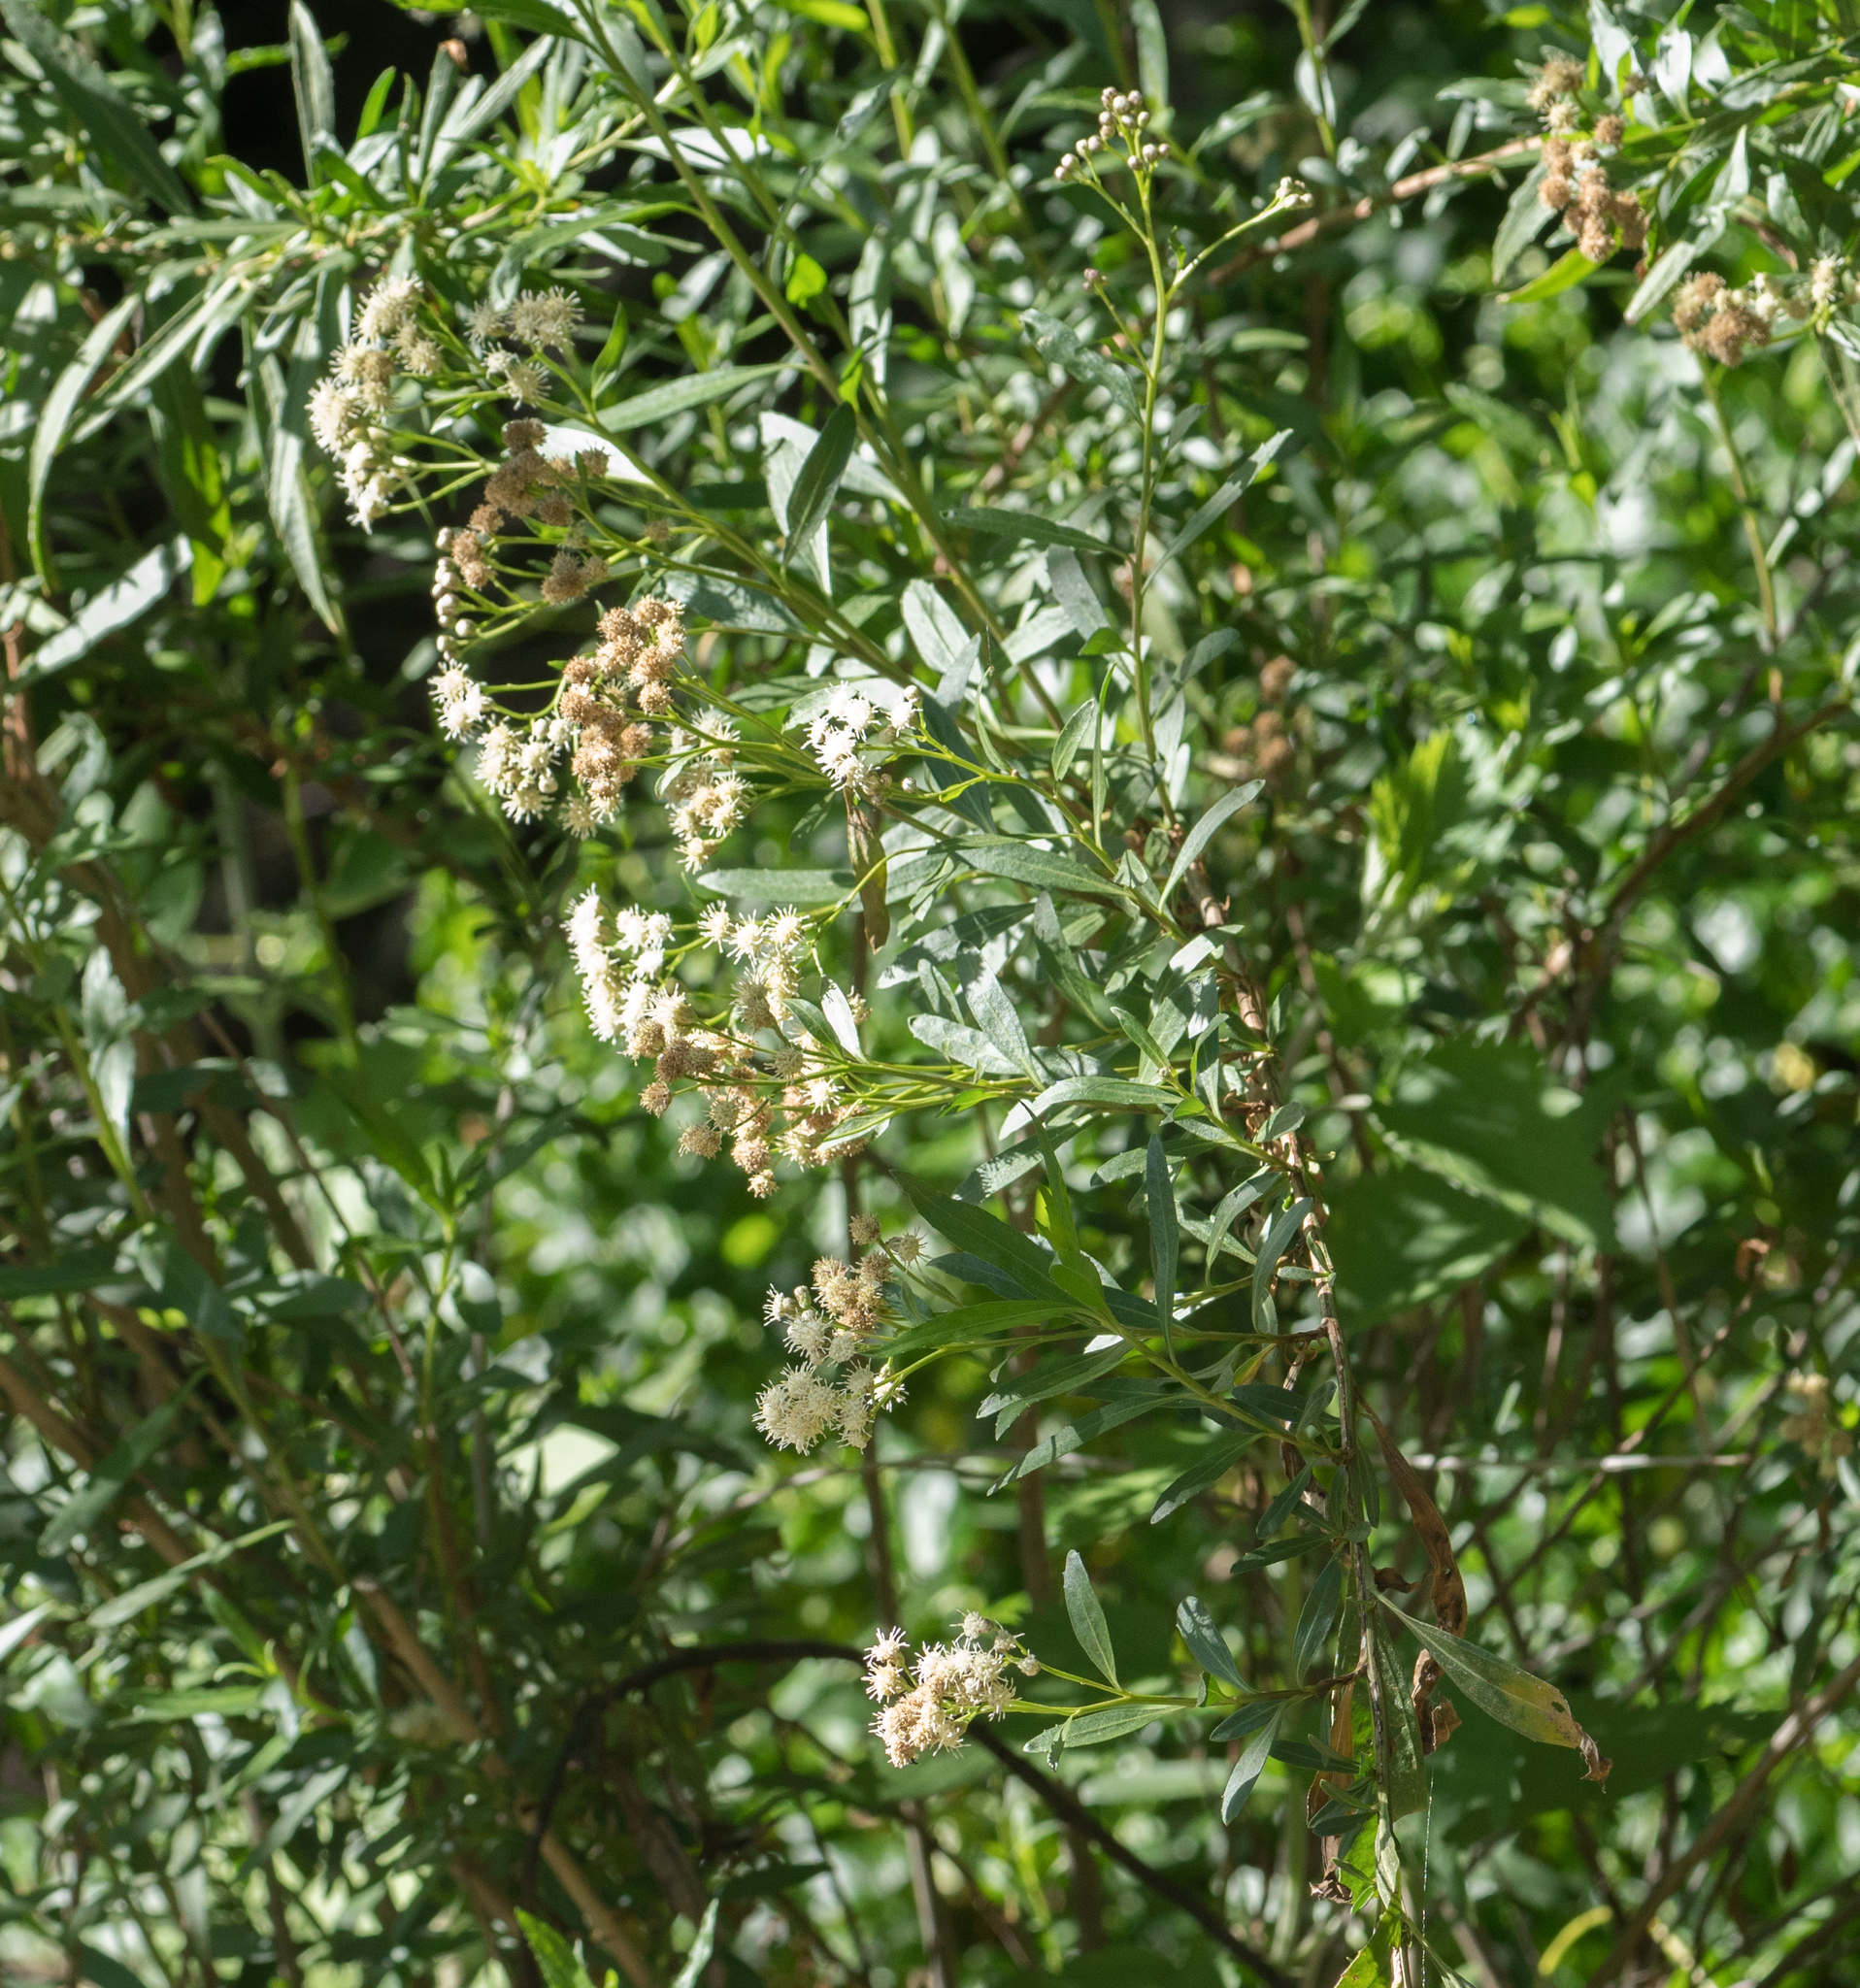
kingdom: Plantae
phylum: Tracheophyta
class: Magnoliopsida
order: Asterales
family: Asteraceae
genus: Baccharis
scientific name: Baccharis salicifolia
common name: Sticky baccharis
